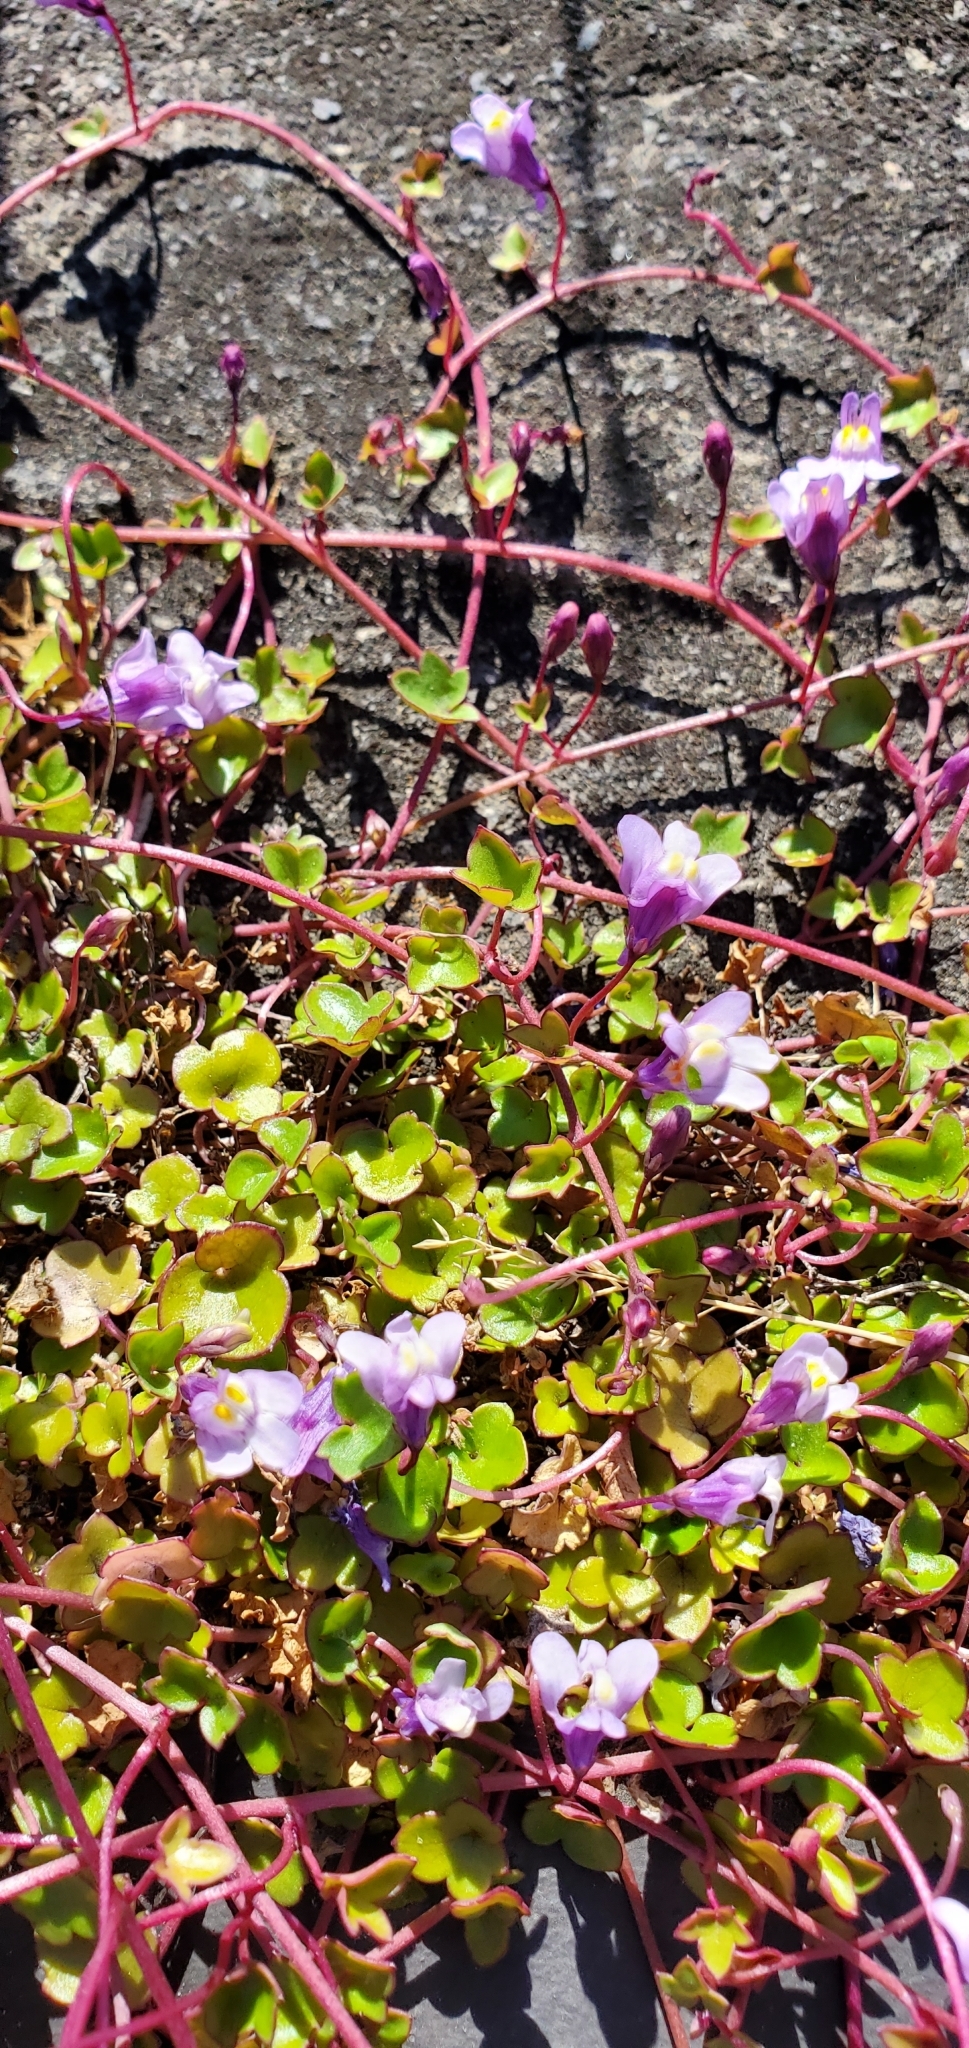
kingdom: Plantae
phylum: Tracheophyta
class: Magnoliopsida
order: Lamiales
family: Plantaginaceae
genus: Cymbalaria
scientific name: Cymbalaria muralis
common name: Ivy-leaved toadflax
